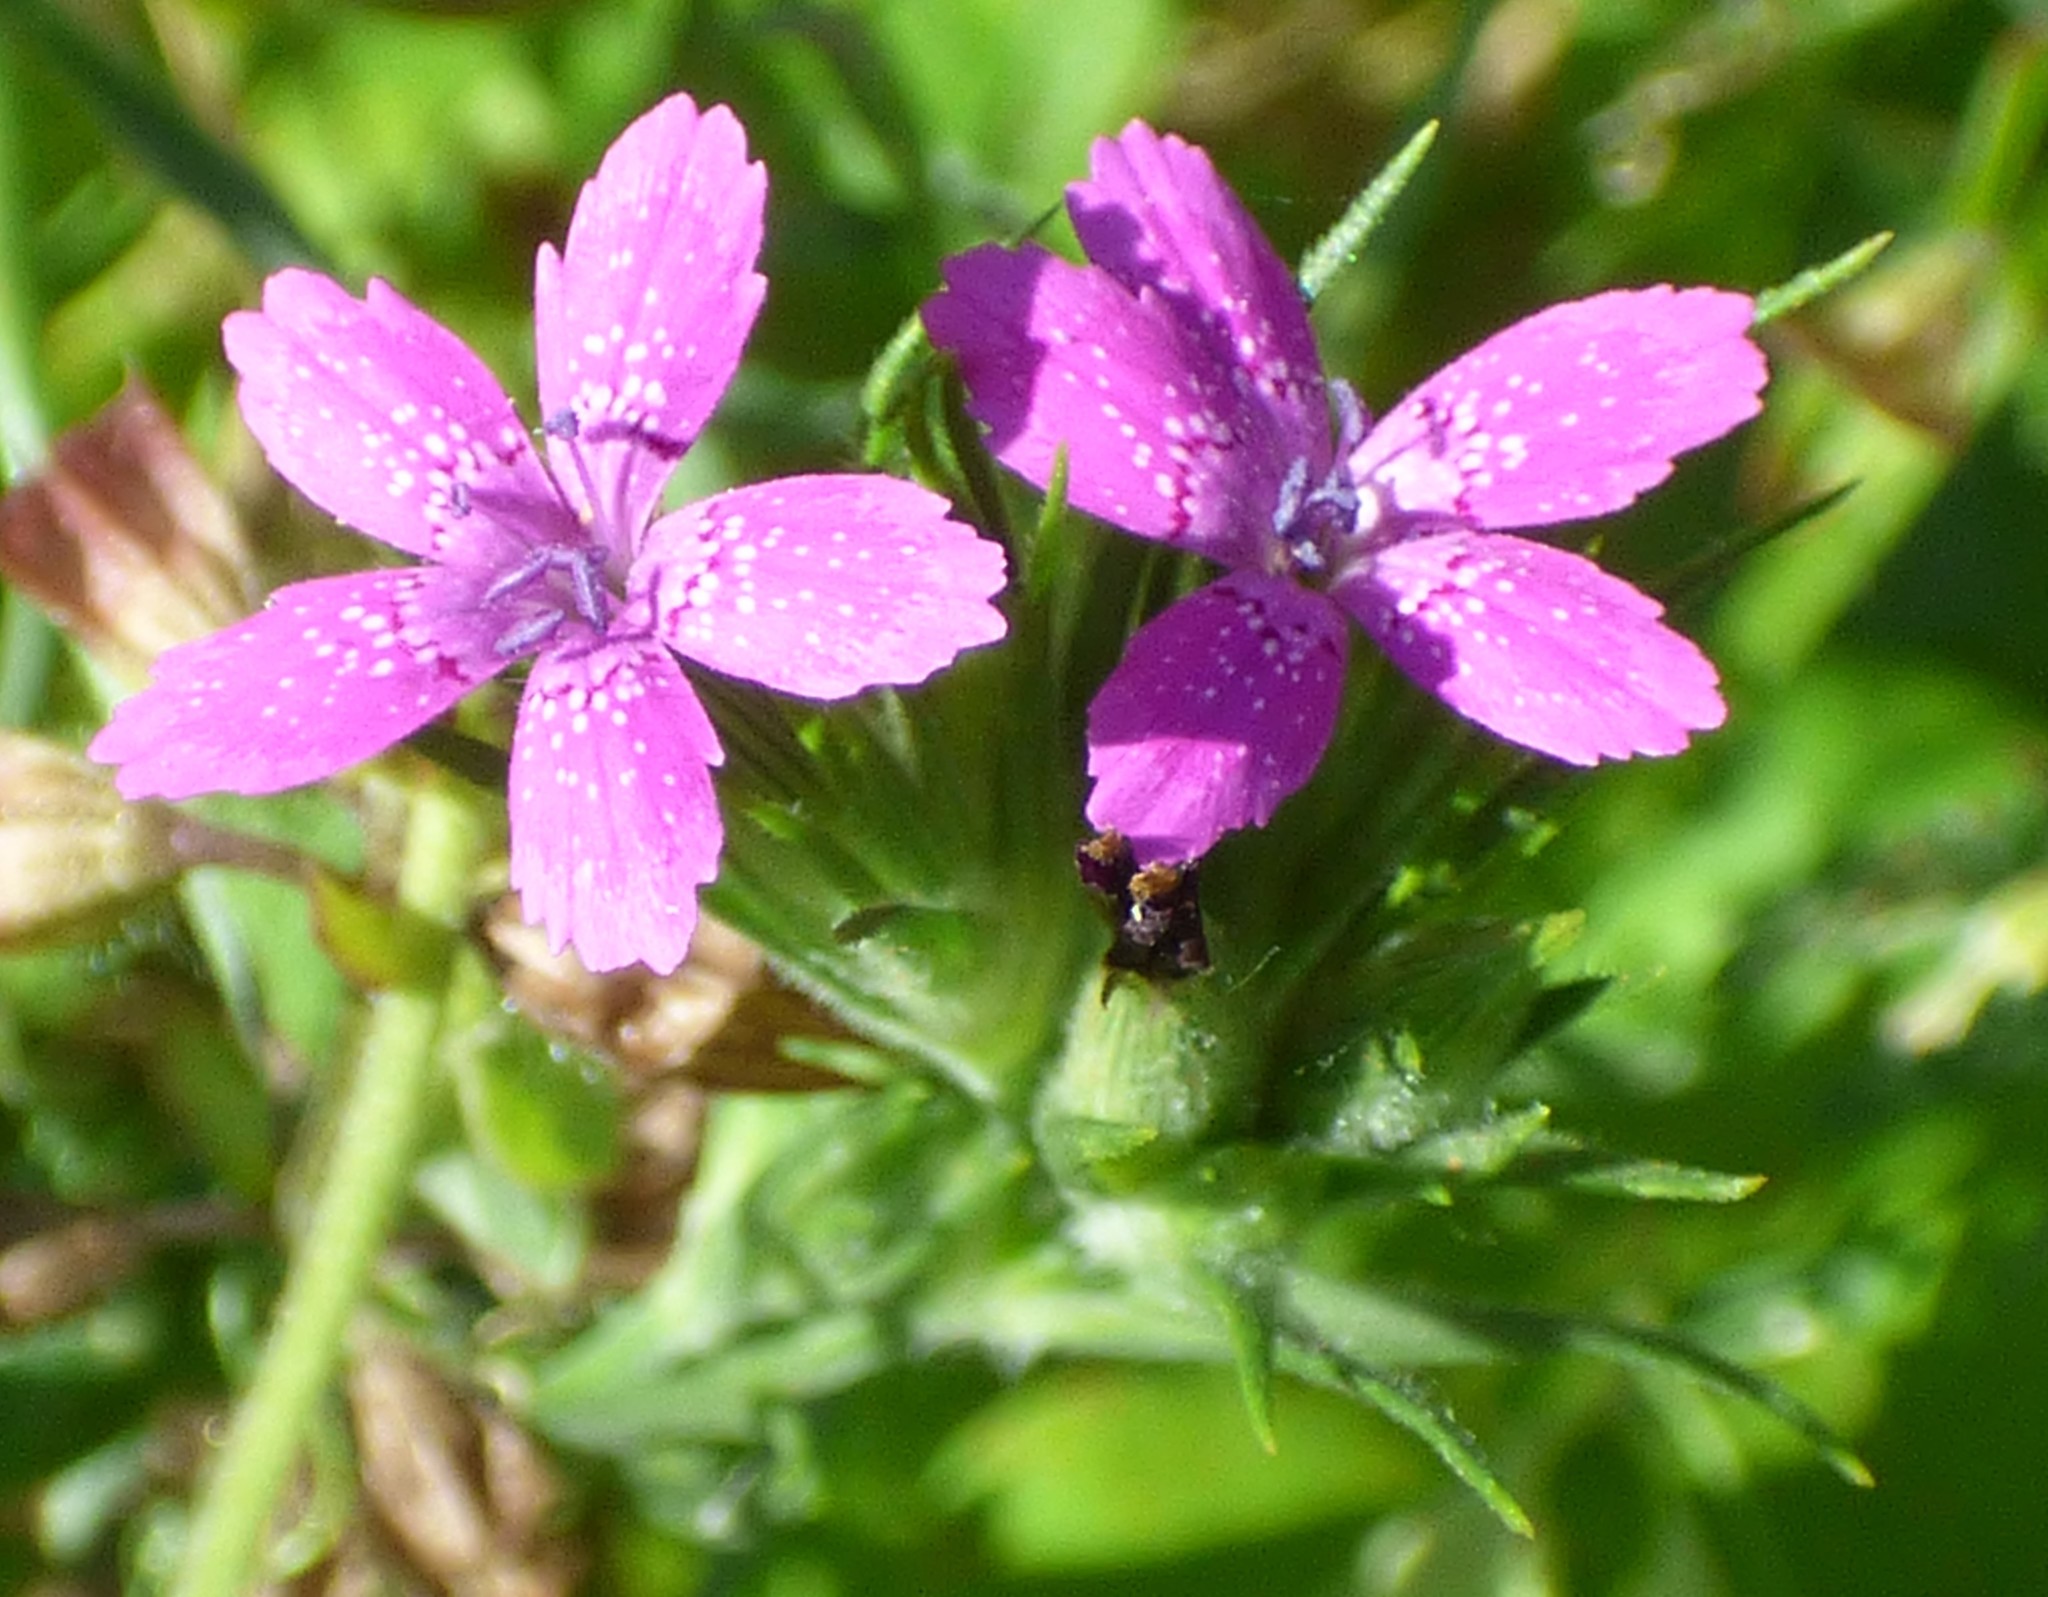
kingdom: Plantae
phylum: Tracheophyta
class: Magnoliopsida
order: Caryophyllales
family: Caryophyllaceae
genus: Dianthus
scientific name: Dianthus armeria
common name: Deptford pink
